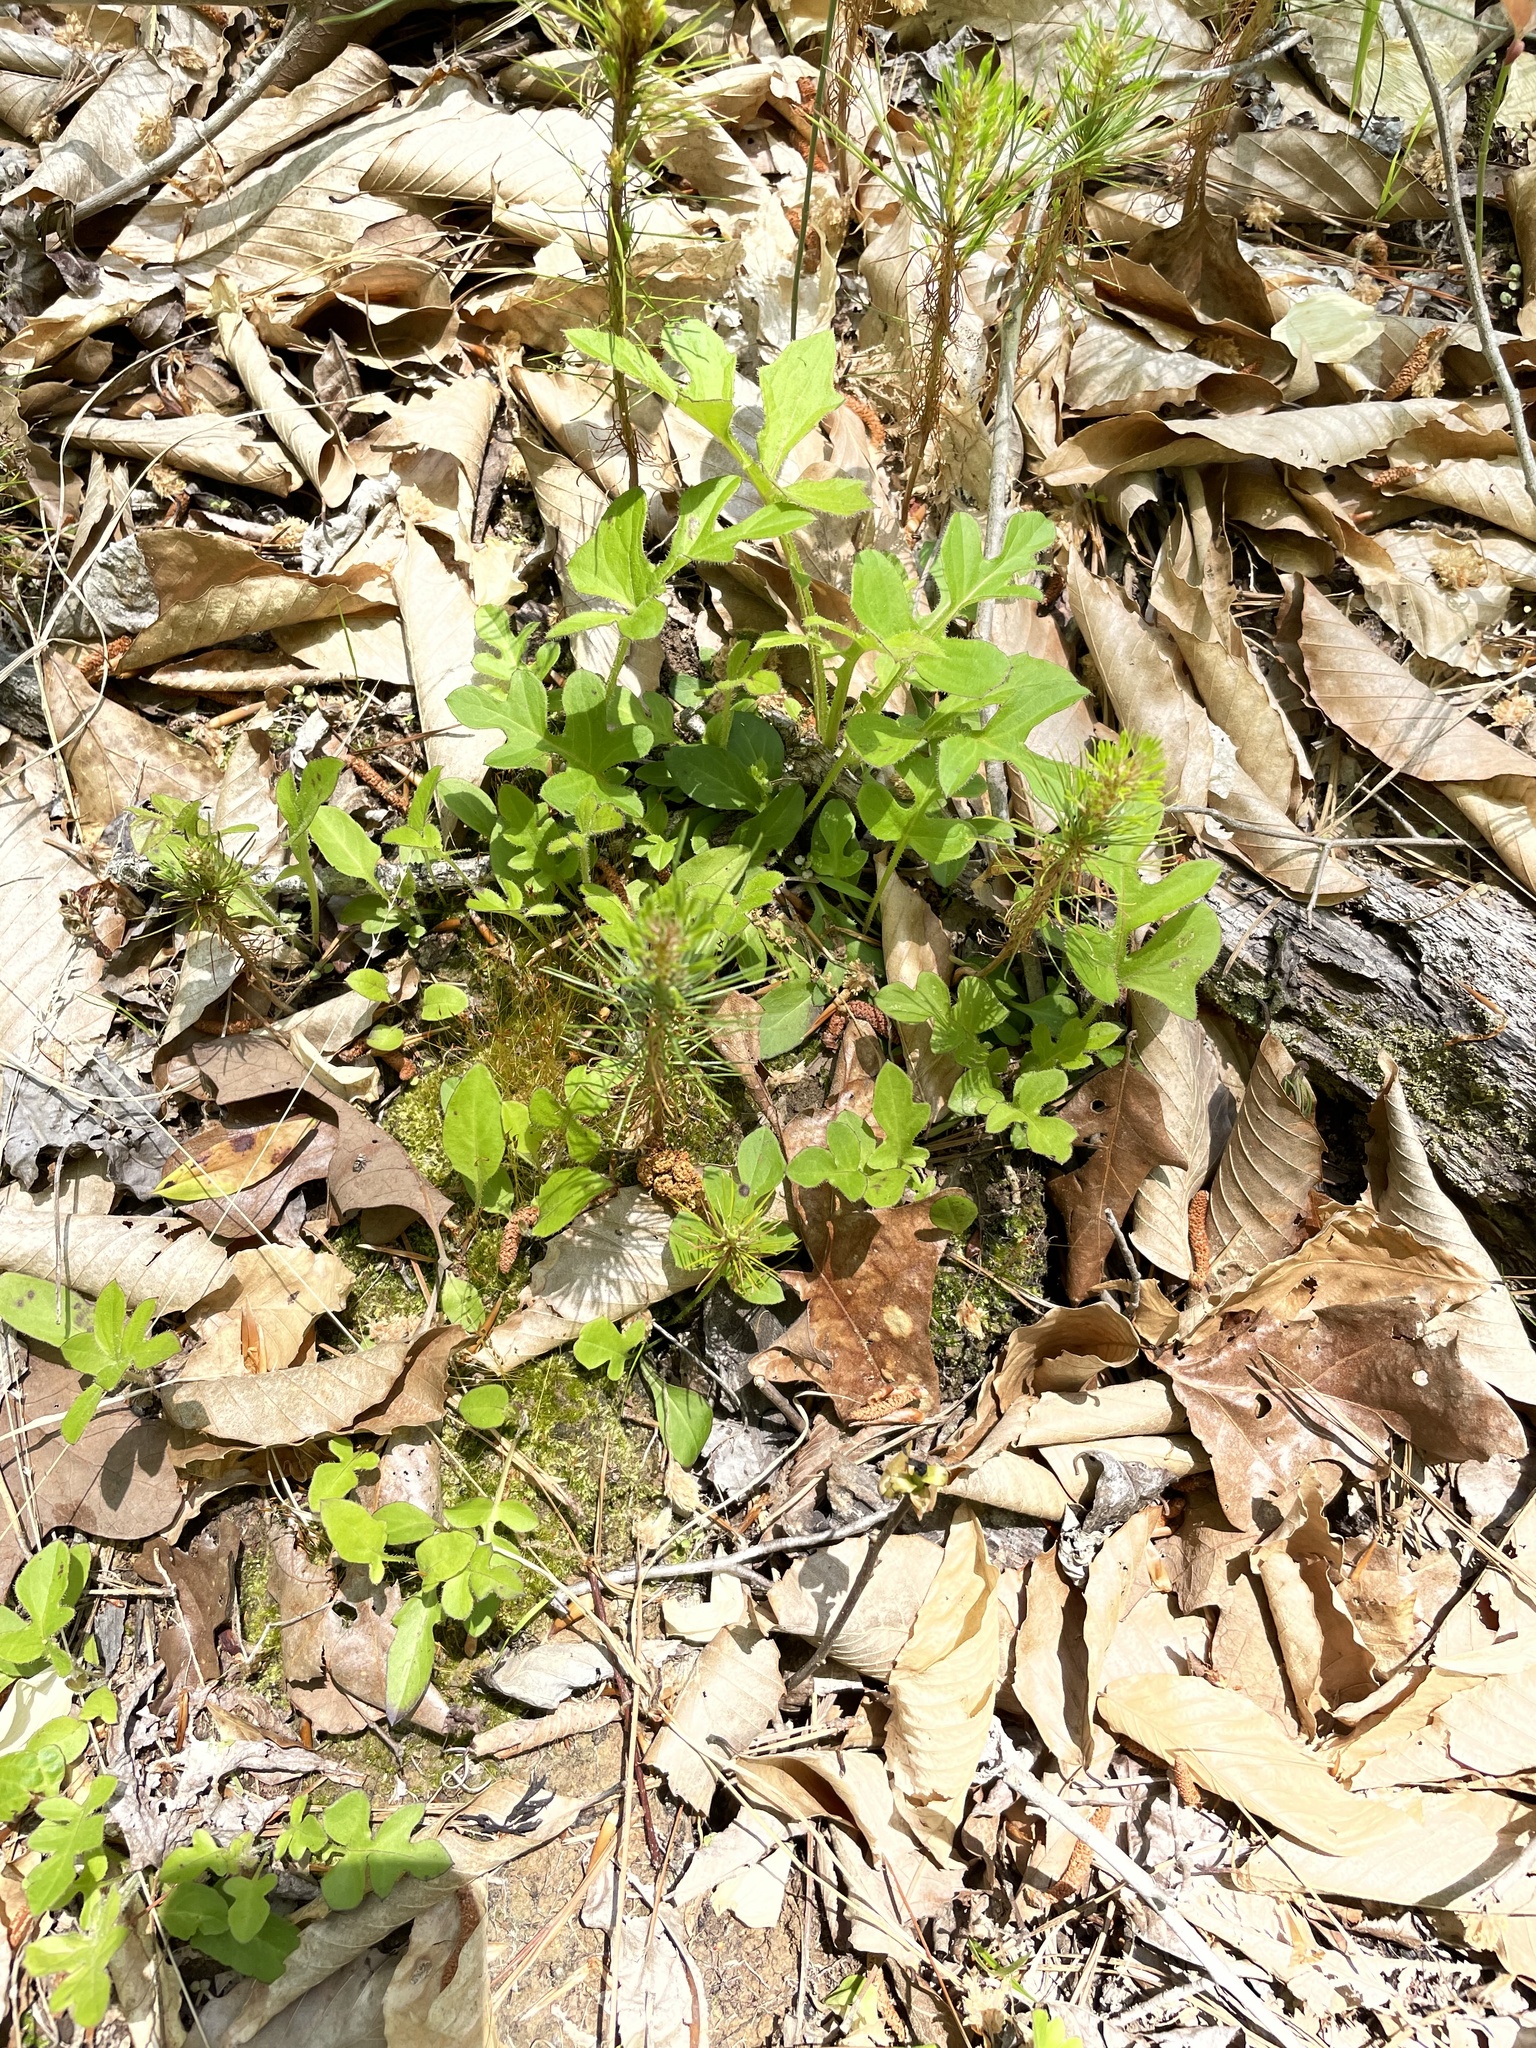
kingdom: Plantae
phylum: Tracheophyta
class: Magnoliopsida
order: Asterales
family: Asteraceae
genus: Nabalus
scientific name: Nabalus serpentarius
